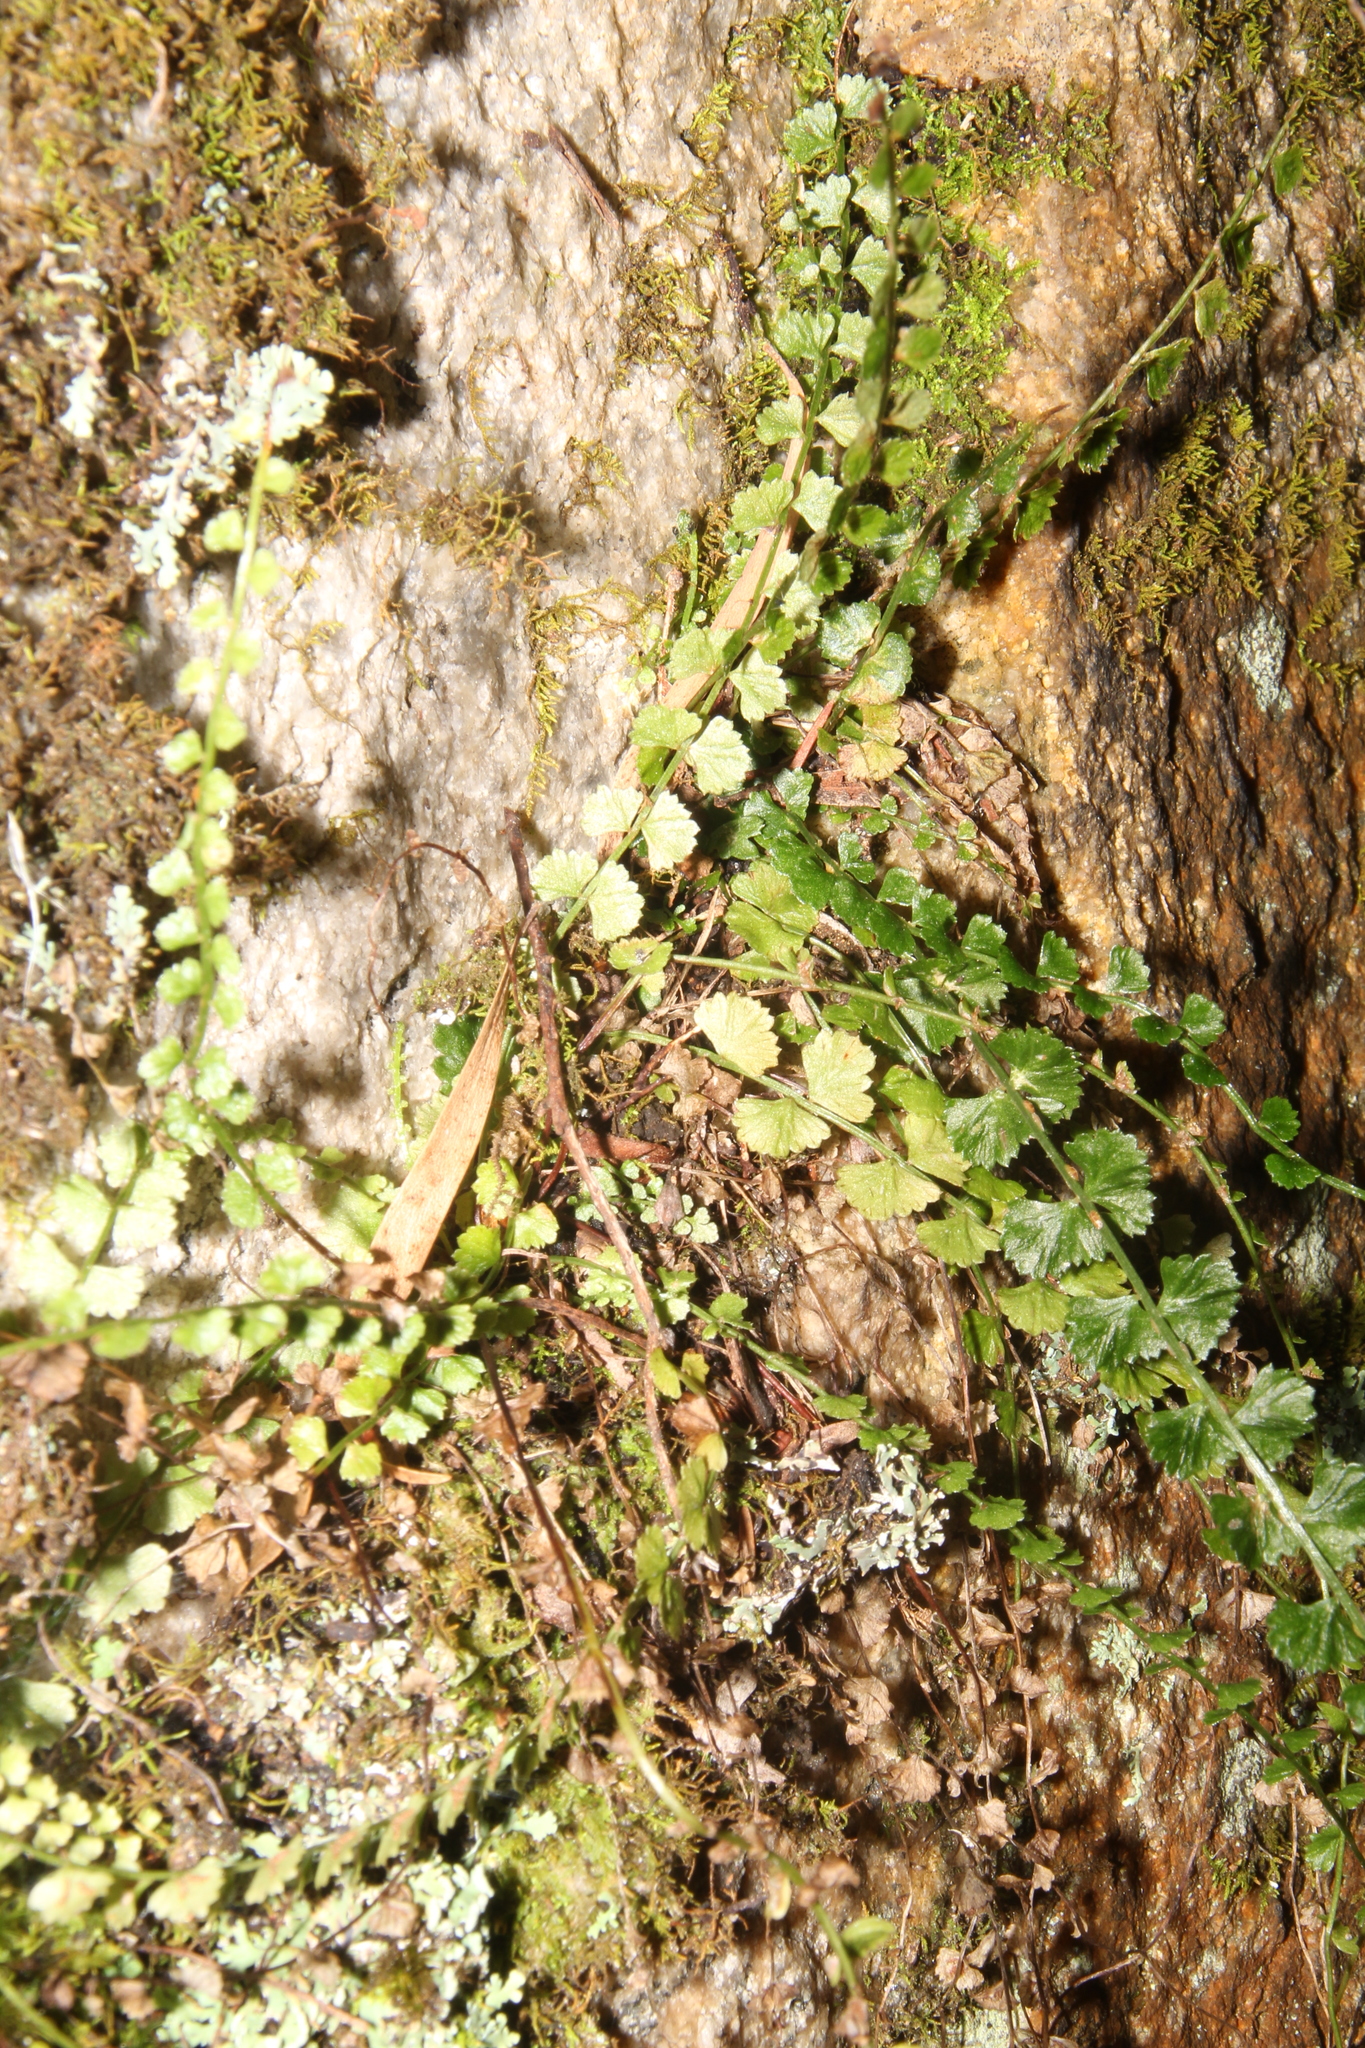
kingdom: Plantae
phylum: Tracheophyta
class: Polypodiopsida
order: Polypodiales
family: Aspleniaceae
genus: Asplenium
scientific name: Asplenium flabellifolium
